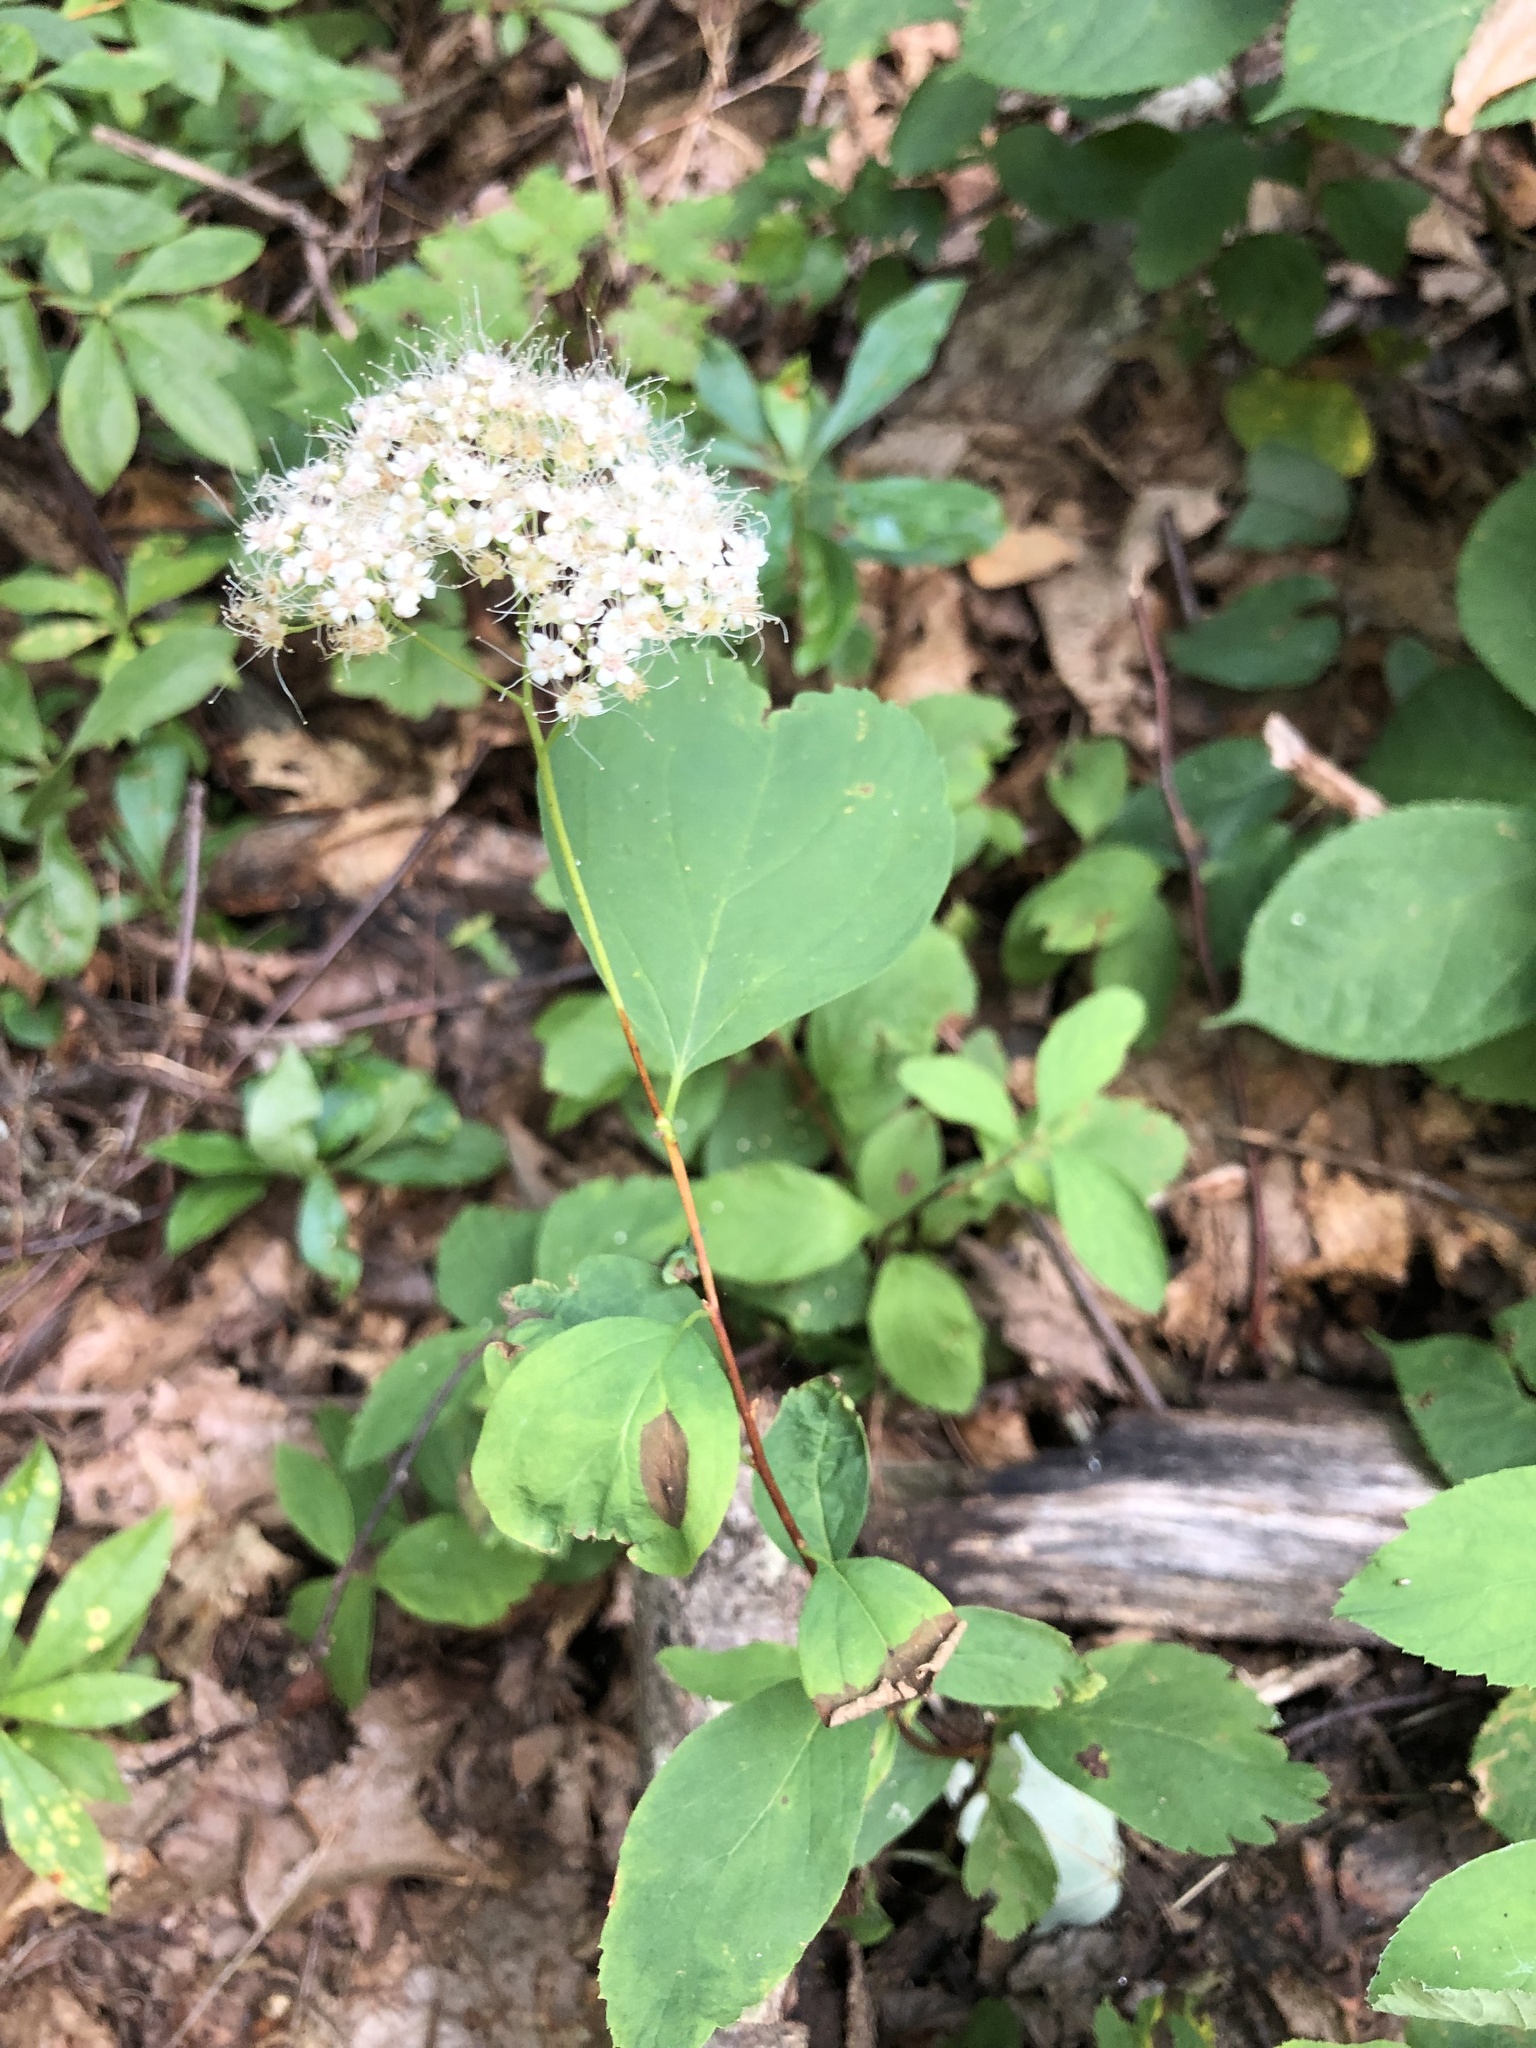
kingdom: Plantae
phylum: Tracheophyta
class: Magnoliopsida
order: Rosales
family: Rosaceae
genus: Spiraea
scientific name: Spiraea corymbosa
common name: Corymbed meadowsweet
